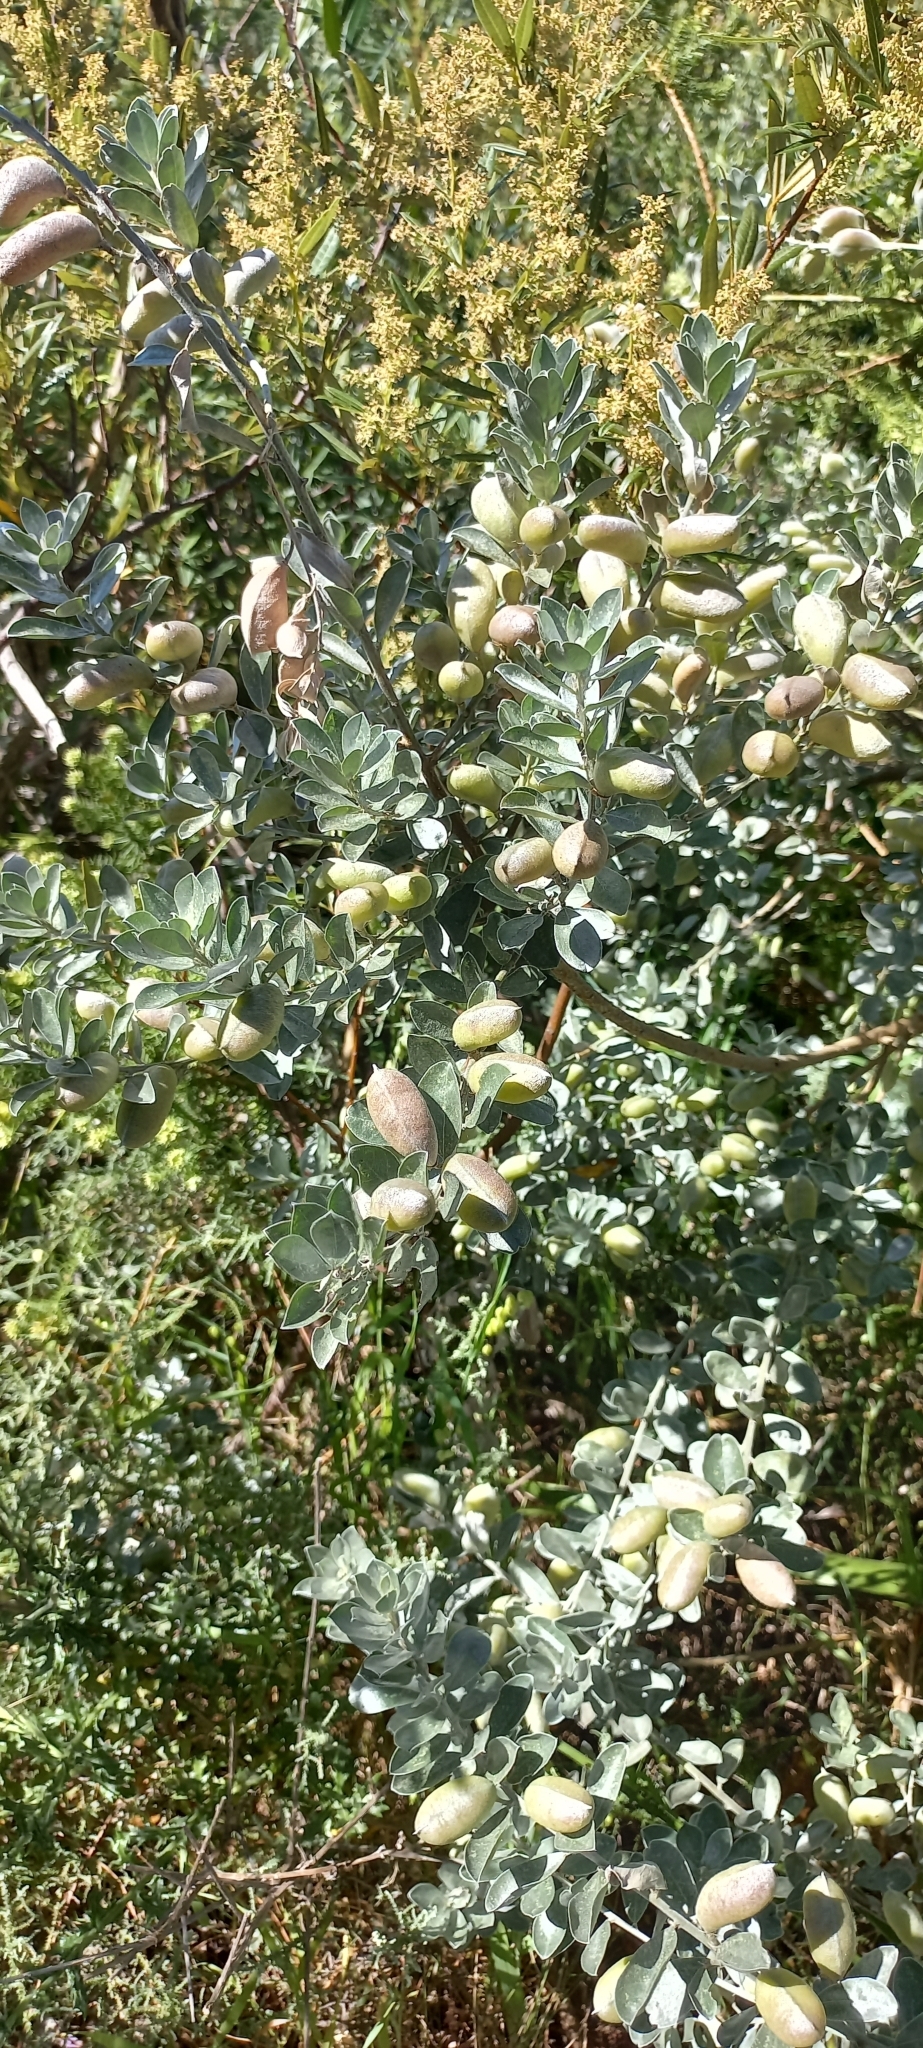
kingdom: Plantae
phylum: Tracheophyta
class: Magnoliopsida
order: Fabales
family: Fabaceae
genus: Podalyria
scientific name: Podalyria sericea
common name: Silver podalyria
